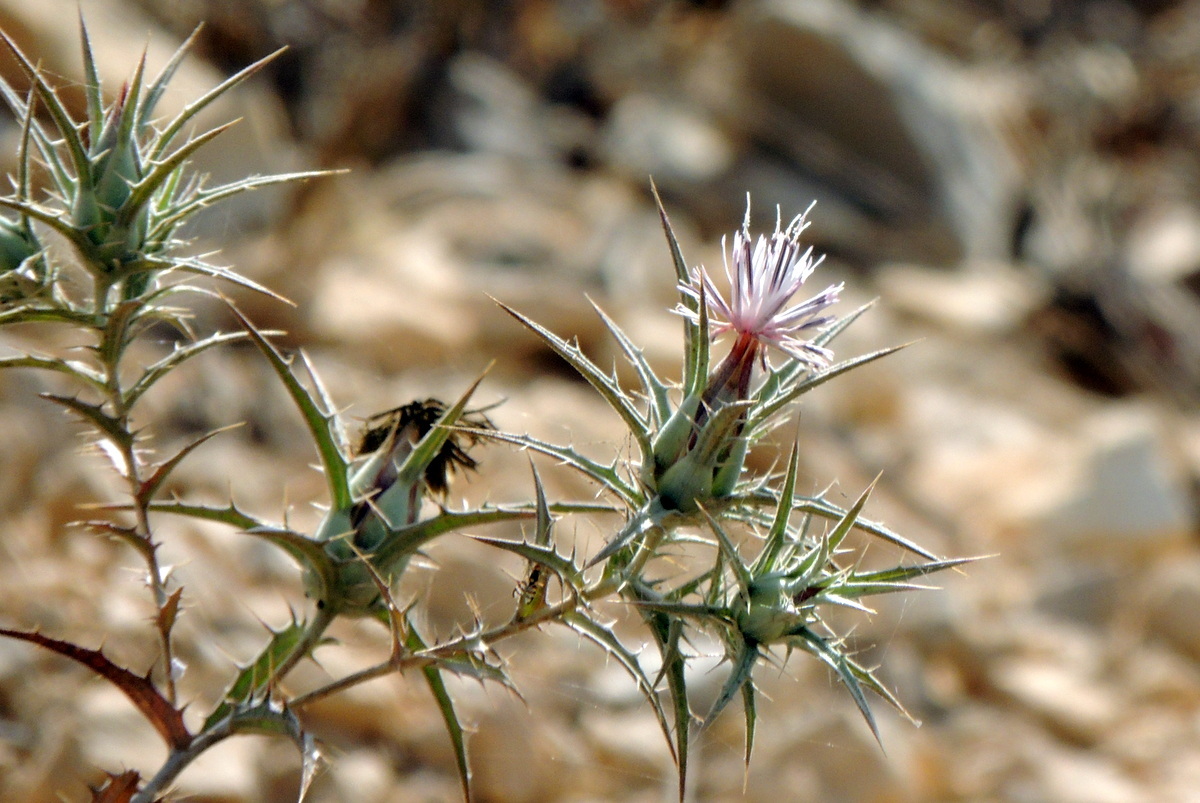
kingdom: Plantae
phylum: Tracheophyta
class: Magnoliopsida
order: Asterales
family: Asteraceae
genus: Carthamus
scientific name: Carthamus tenuis
